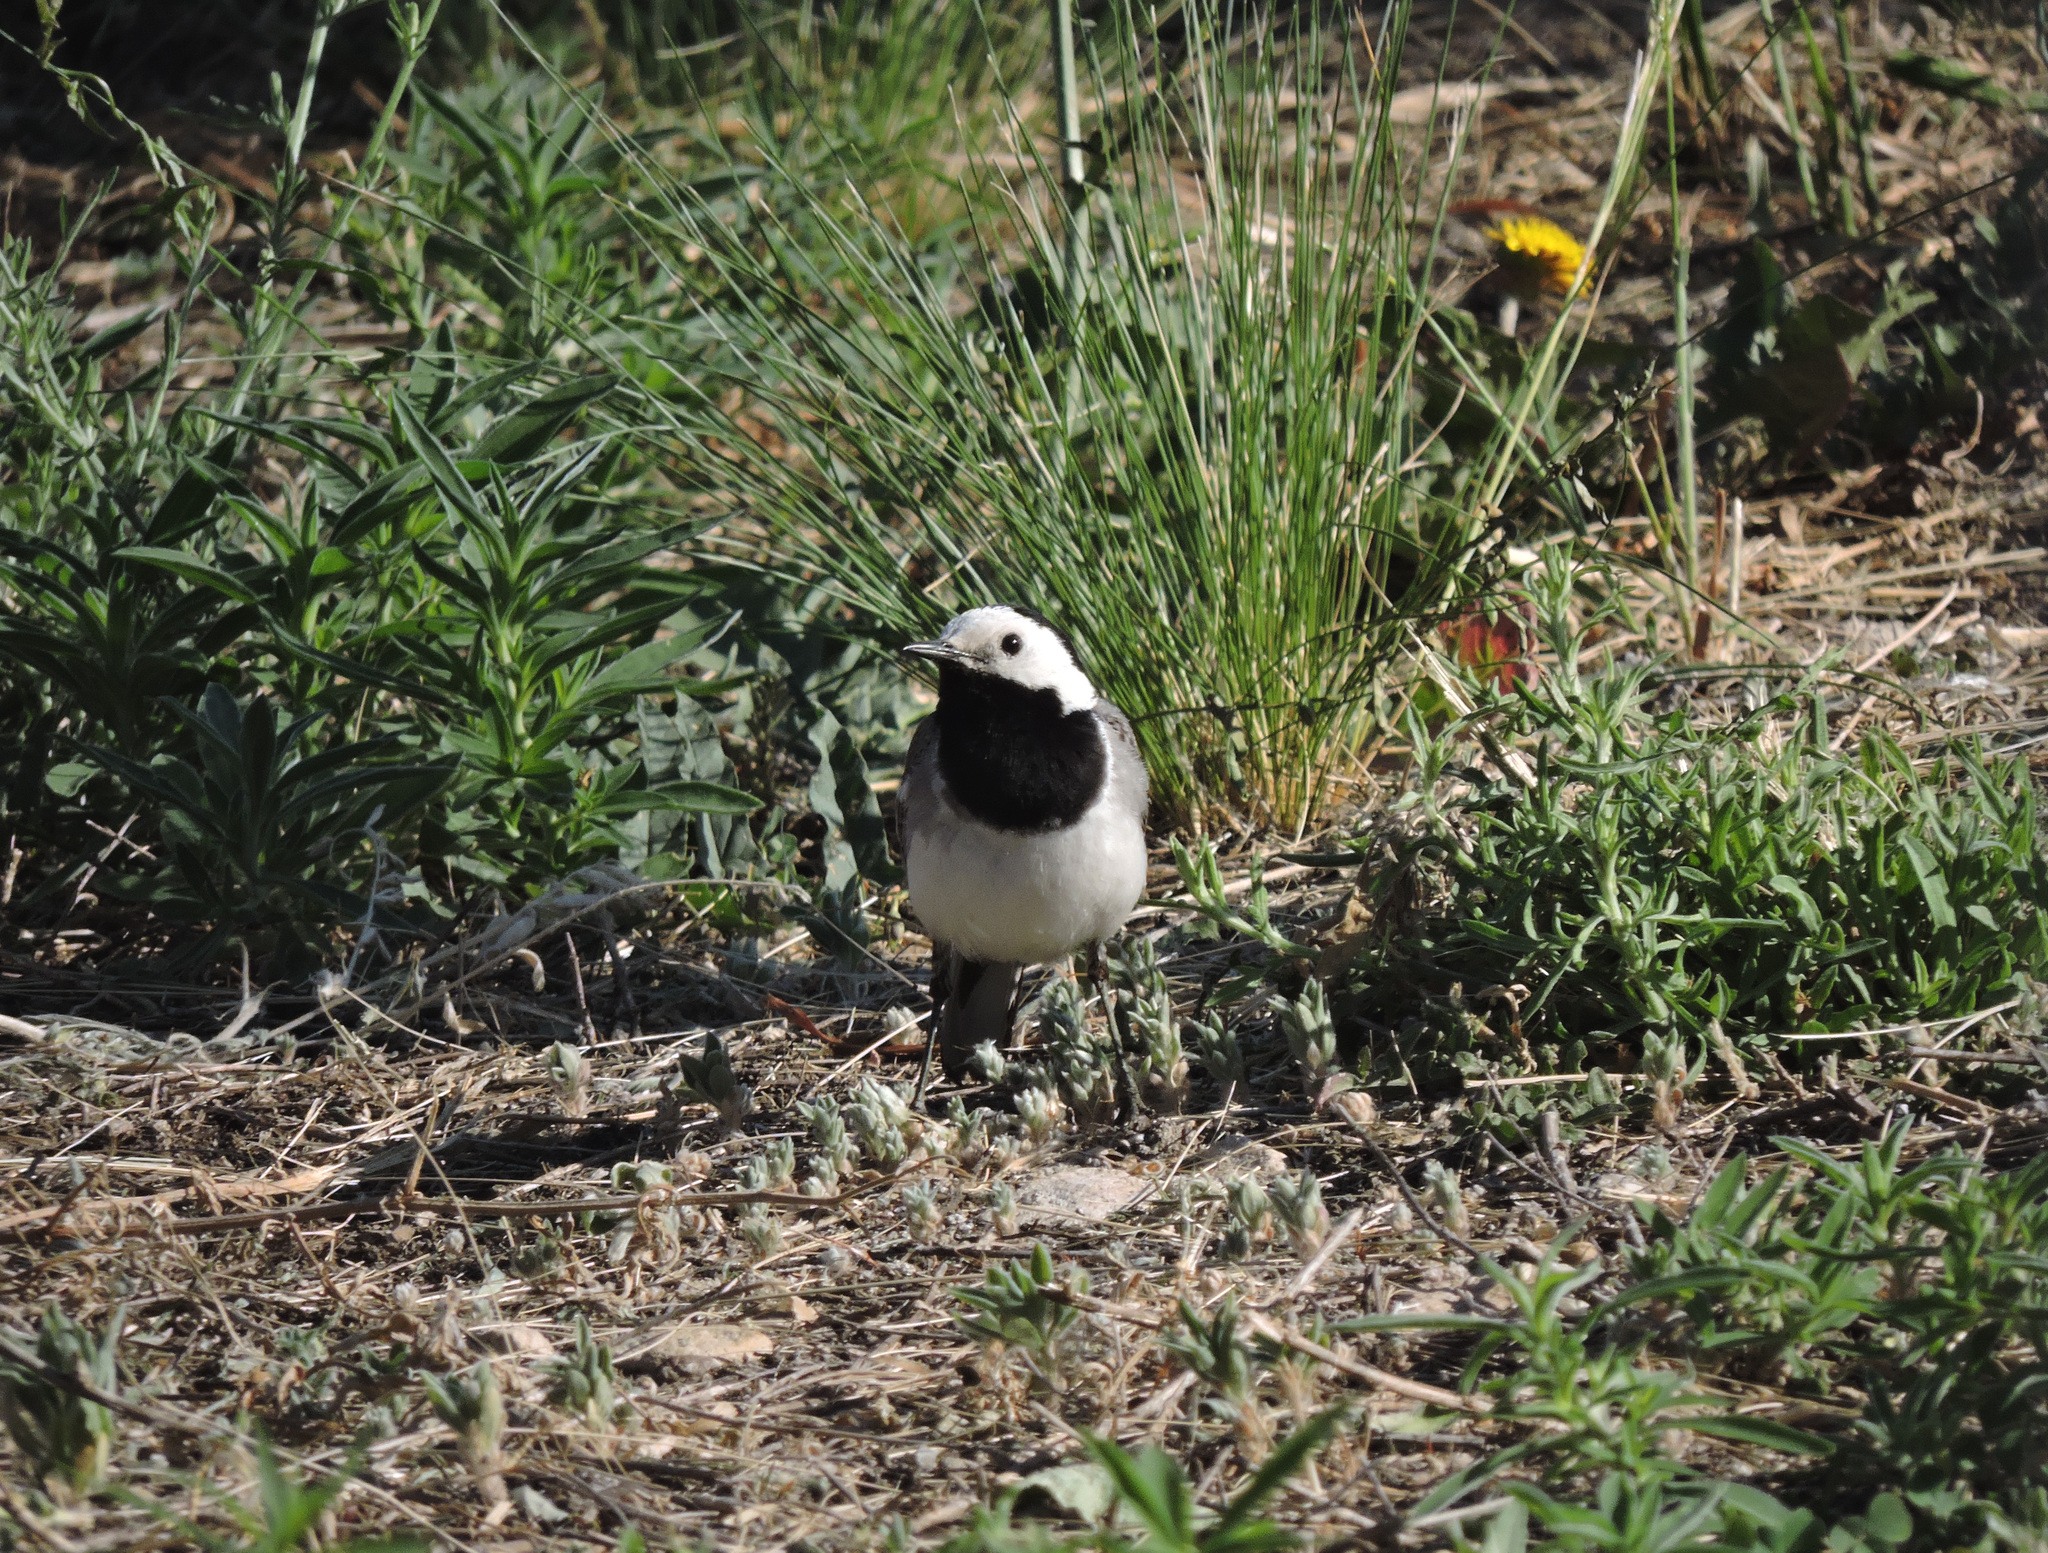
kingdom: Animalia
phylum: Chordata
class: Aves
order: Passeriformes
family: Motacillidae
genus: Motacilla
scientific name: Motacilla alba
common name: White wagtail
